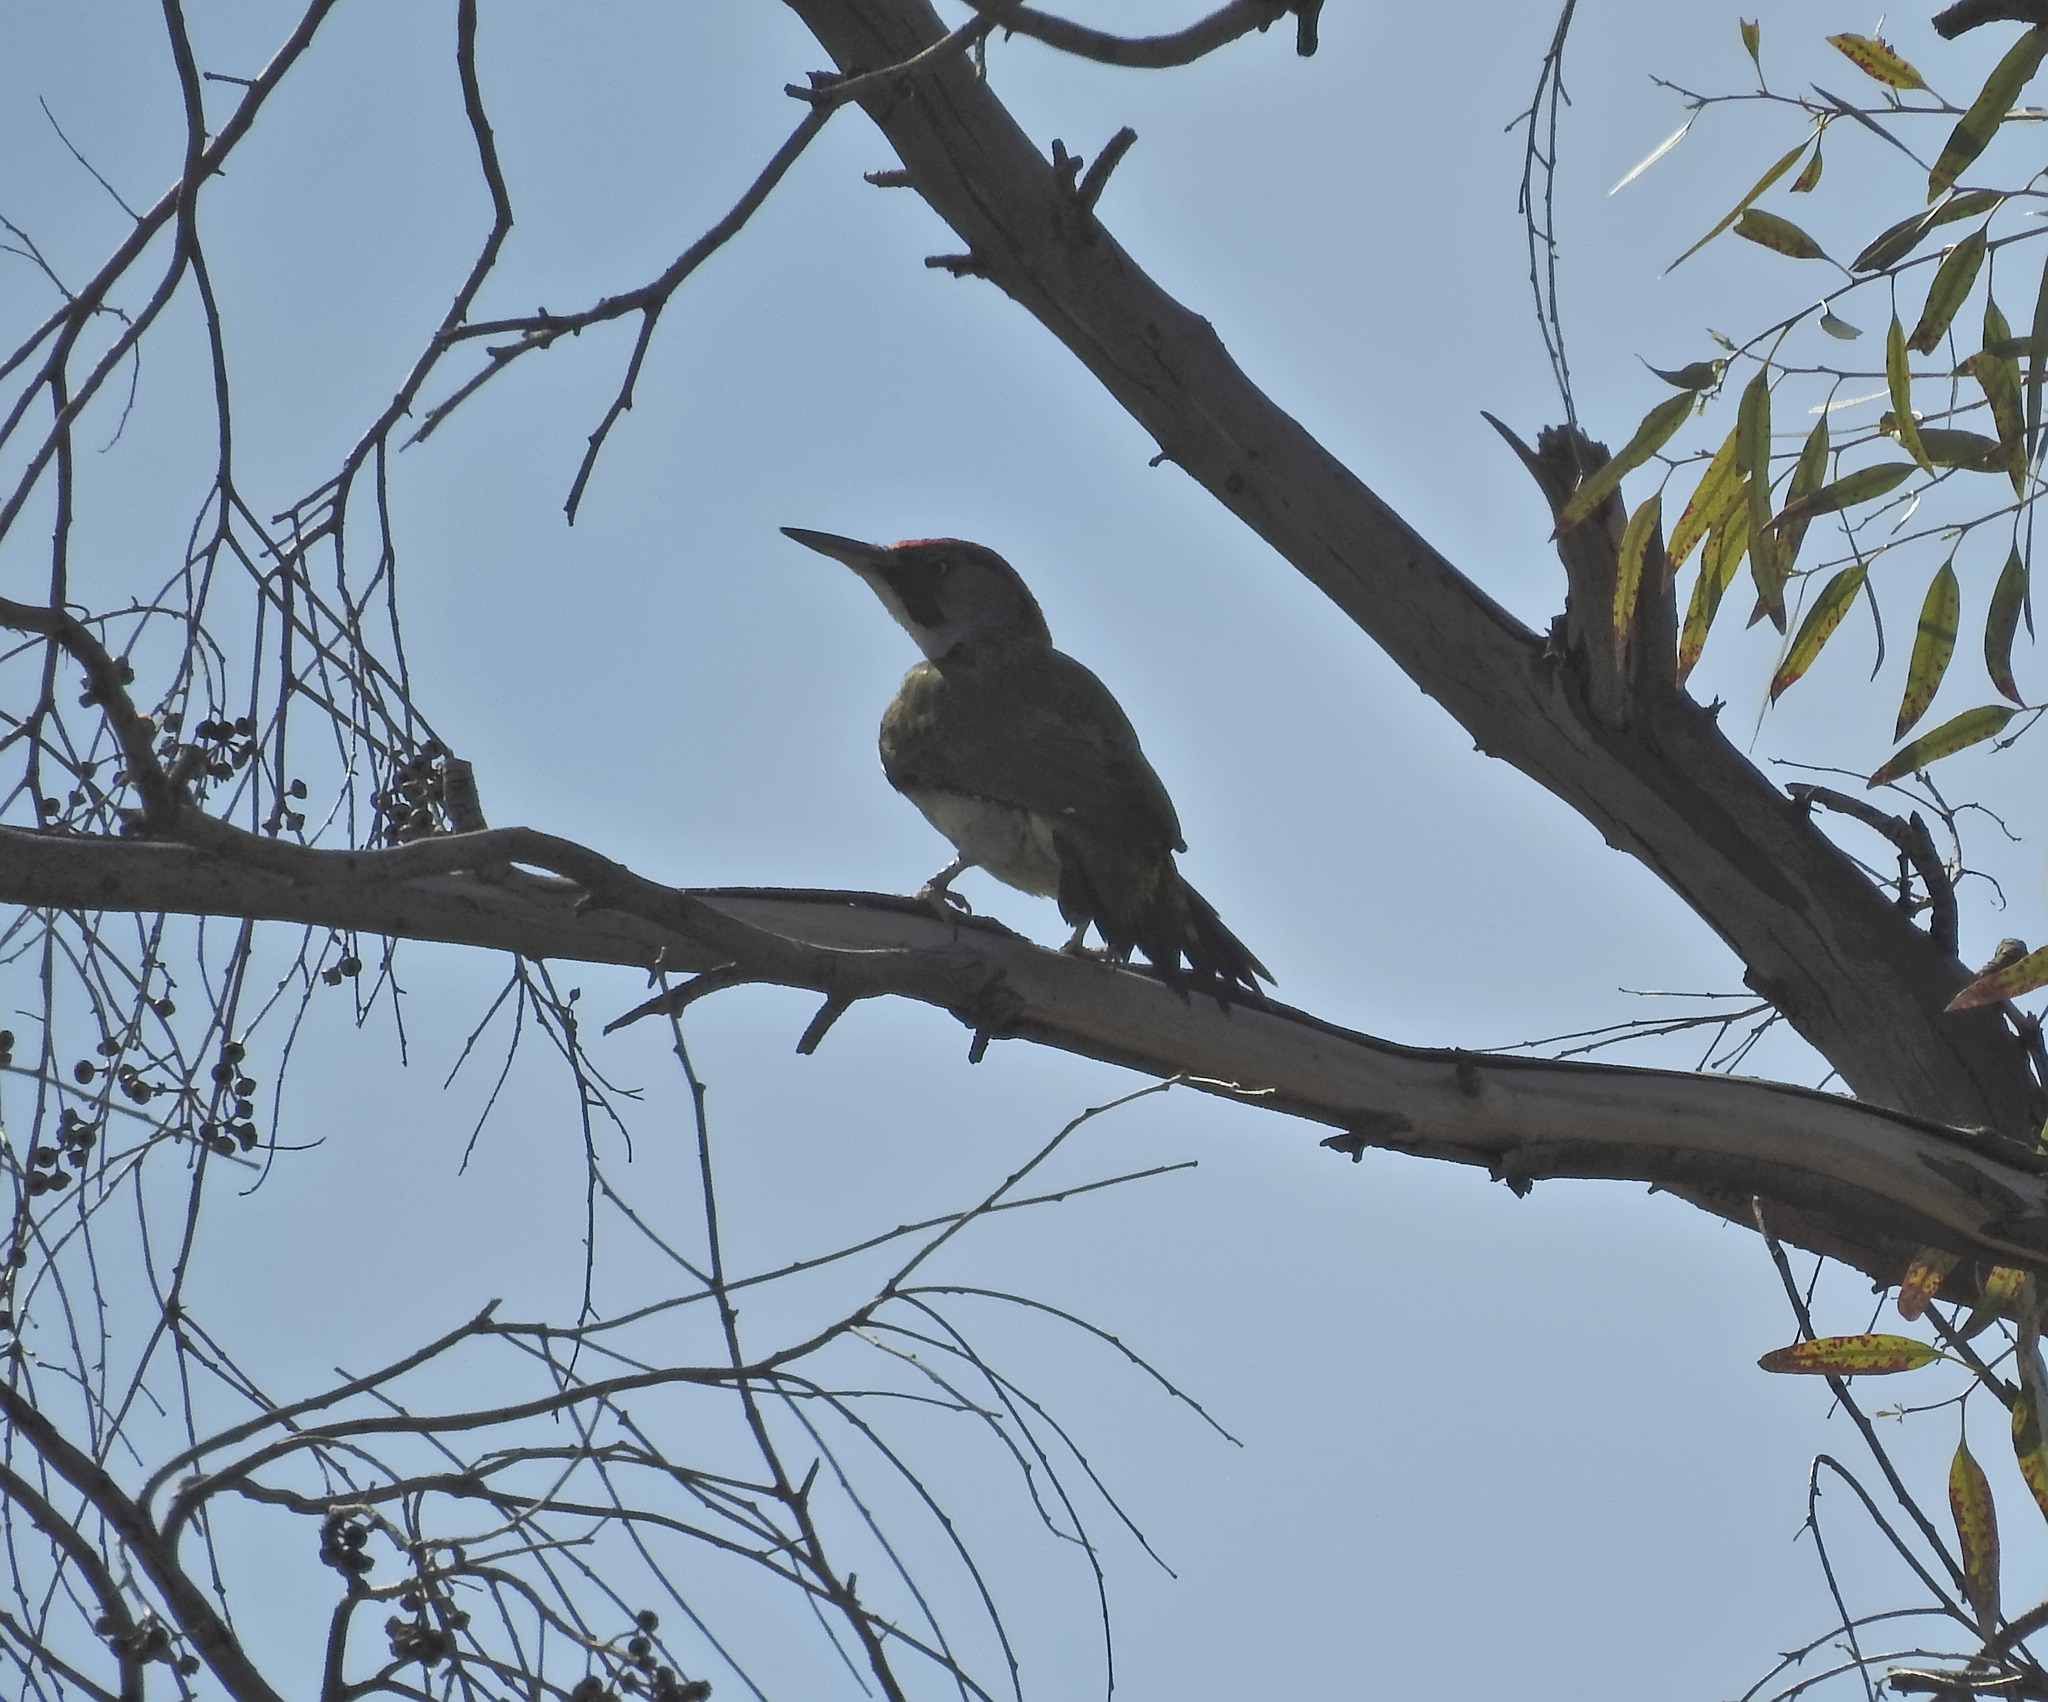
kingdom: Animalia
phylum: Chordata
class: Aves
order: Piciformes
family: Picidae
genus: Picus
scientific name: Picus sharpei
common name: Iberian green woodpecker
